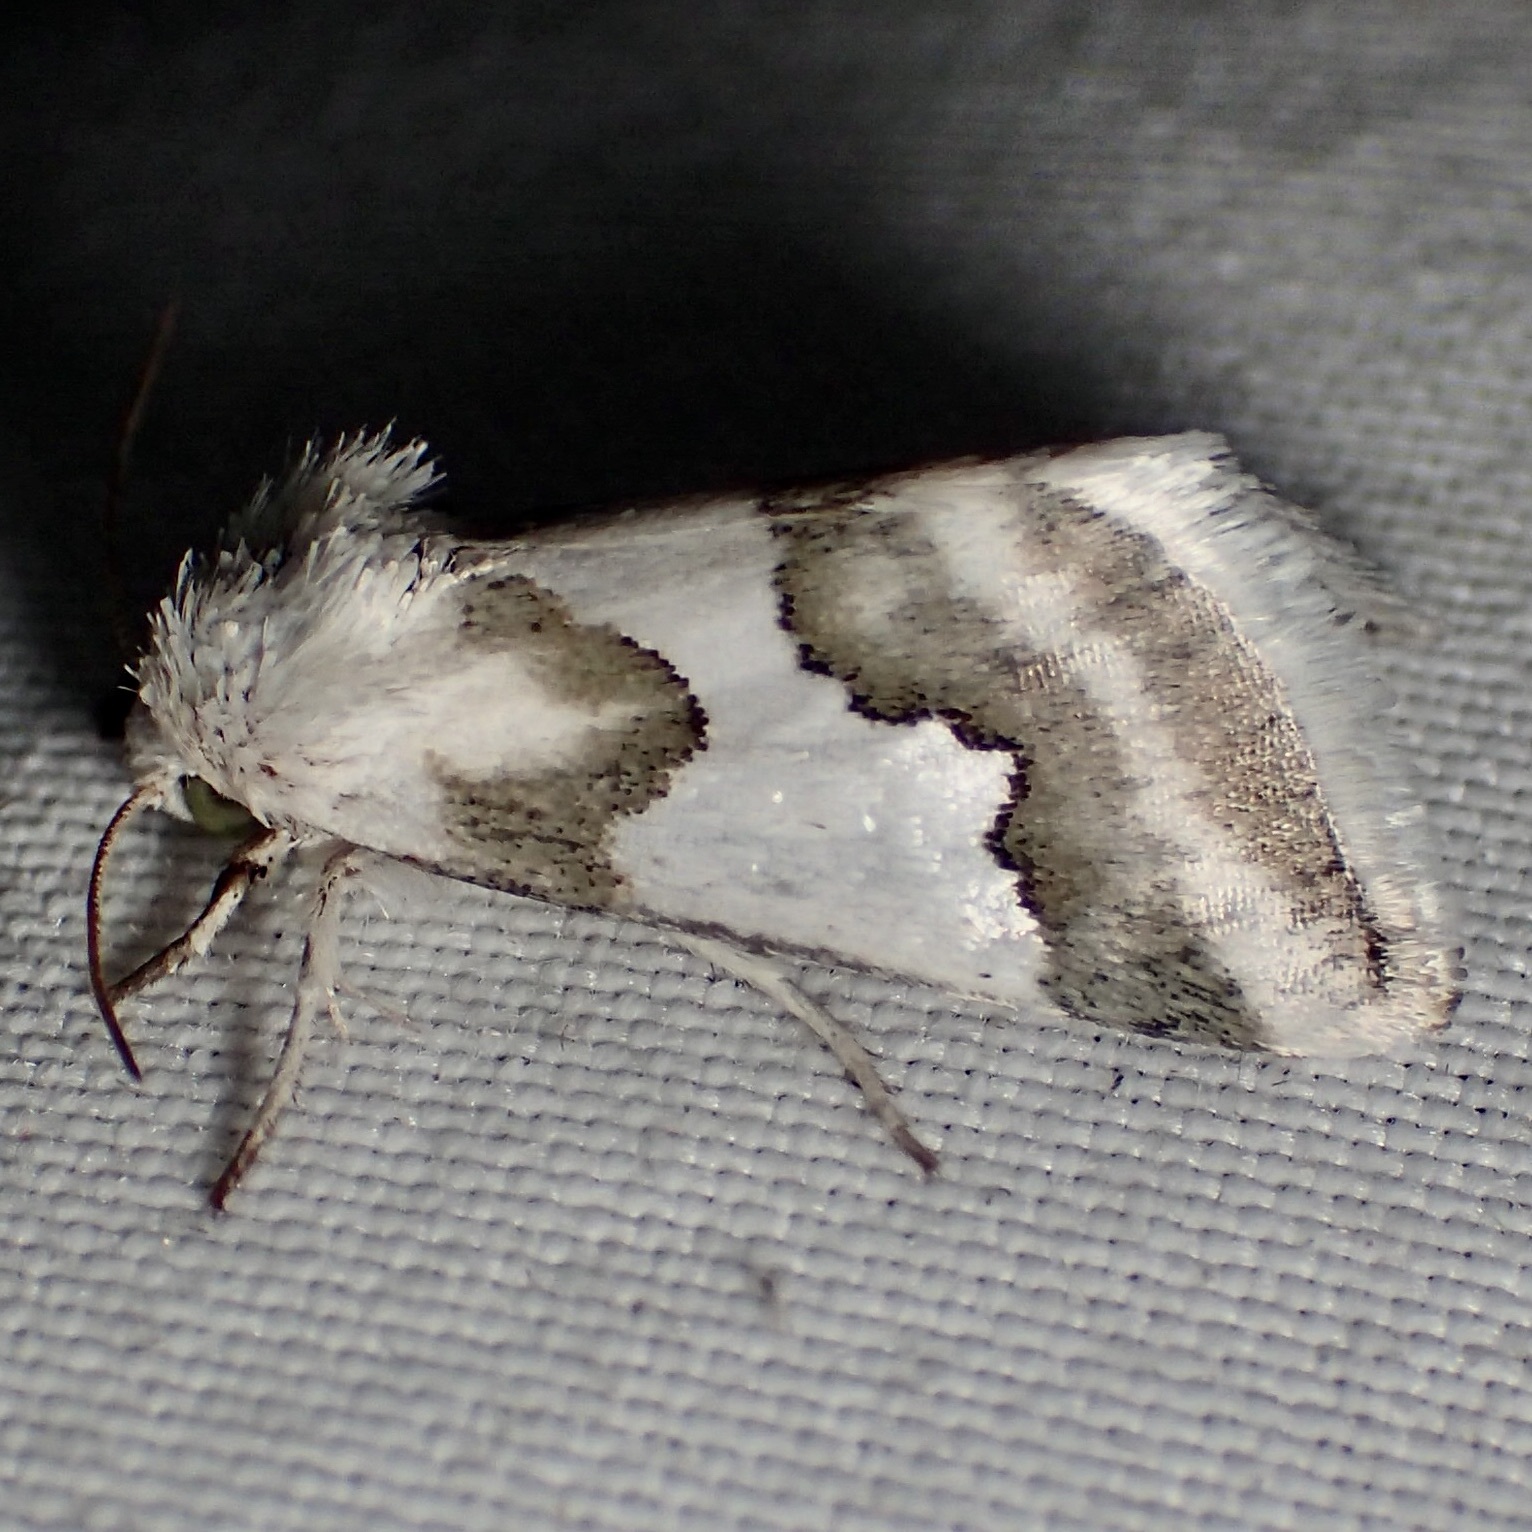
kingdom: Animalia
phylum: Arthropoda
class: Insecta
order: Lepidoptera
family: Noctuidae
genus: Schinia
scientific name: Schinia hulstia
